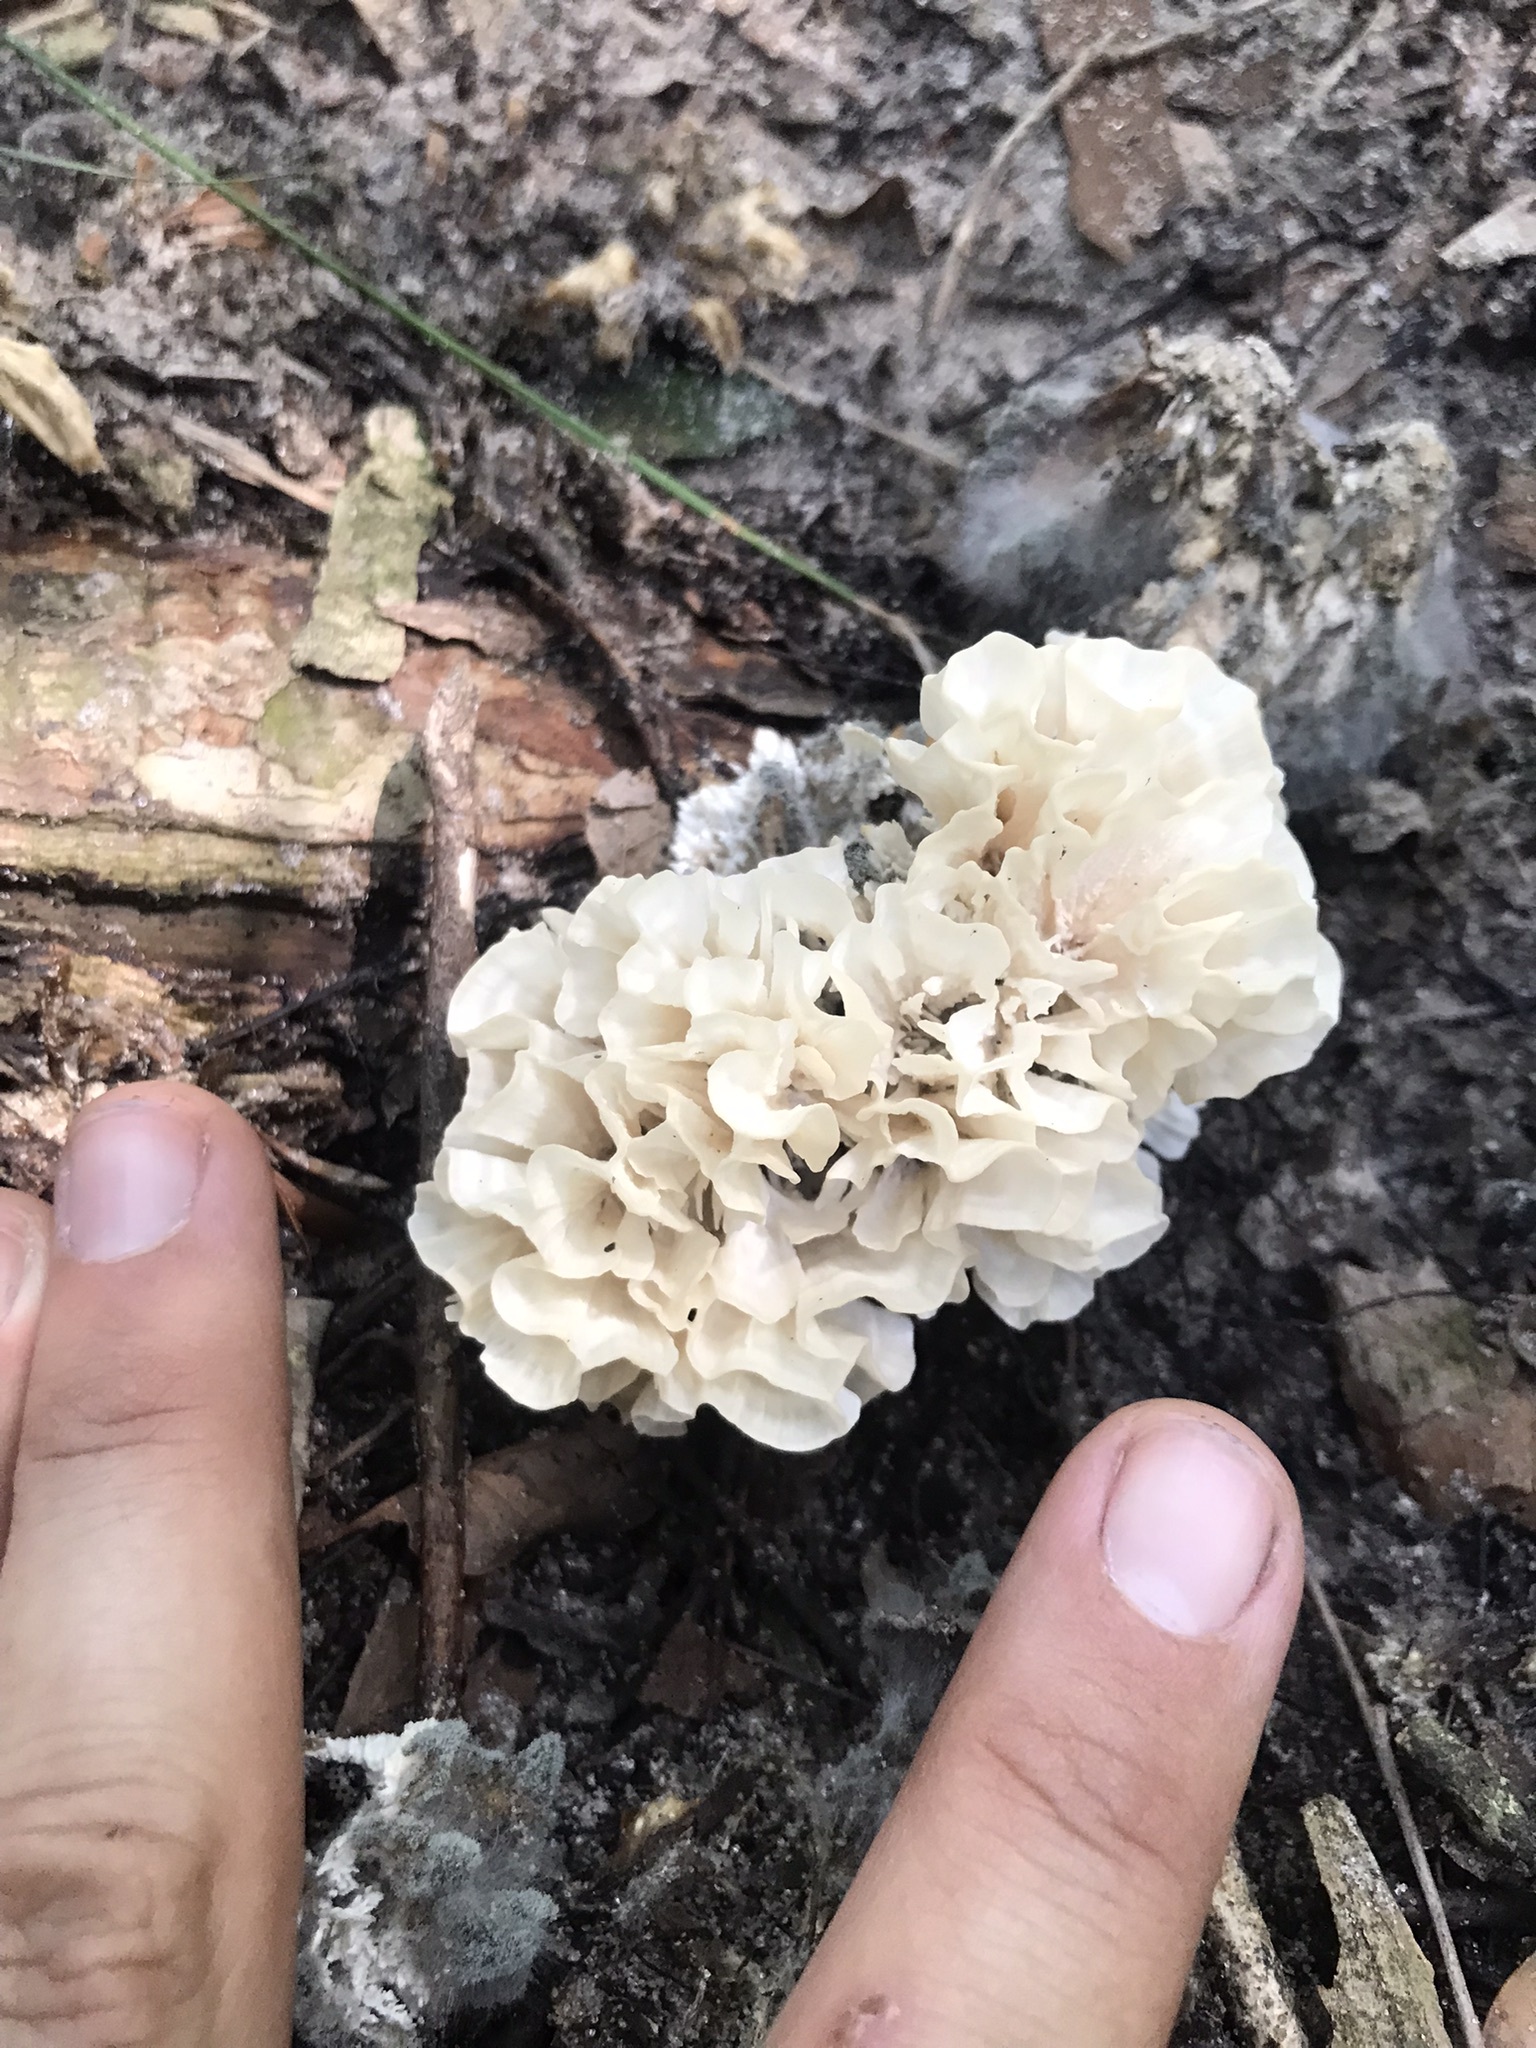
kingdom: Fungi
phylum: Basidiomycota
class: Agaricomycetes
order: Polyporales
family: Irpicaceae
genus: Irpex
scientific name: Irpex rosettiformis
